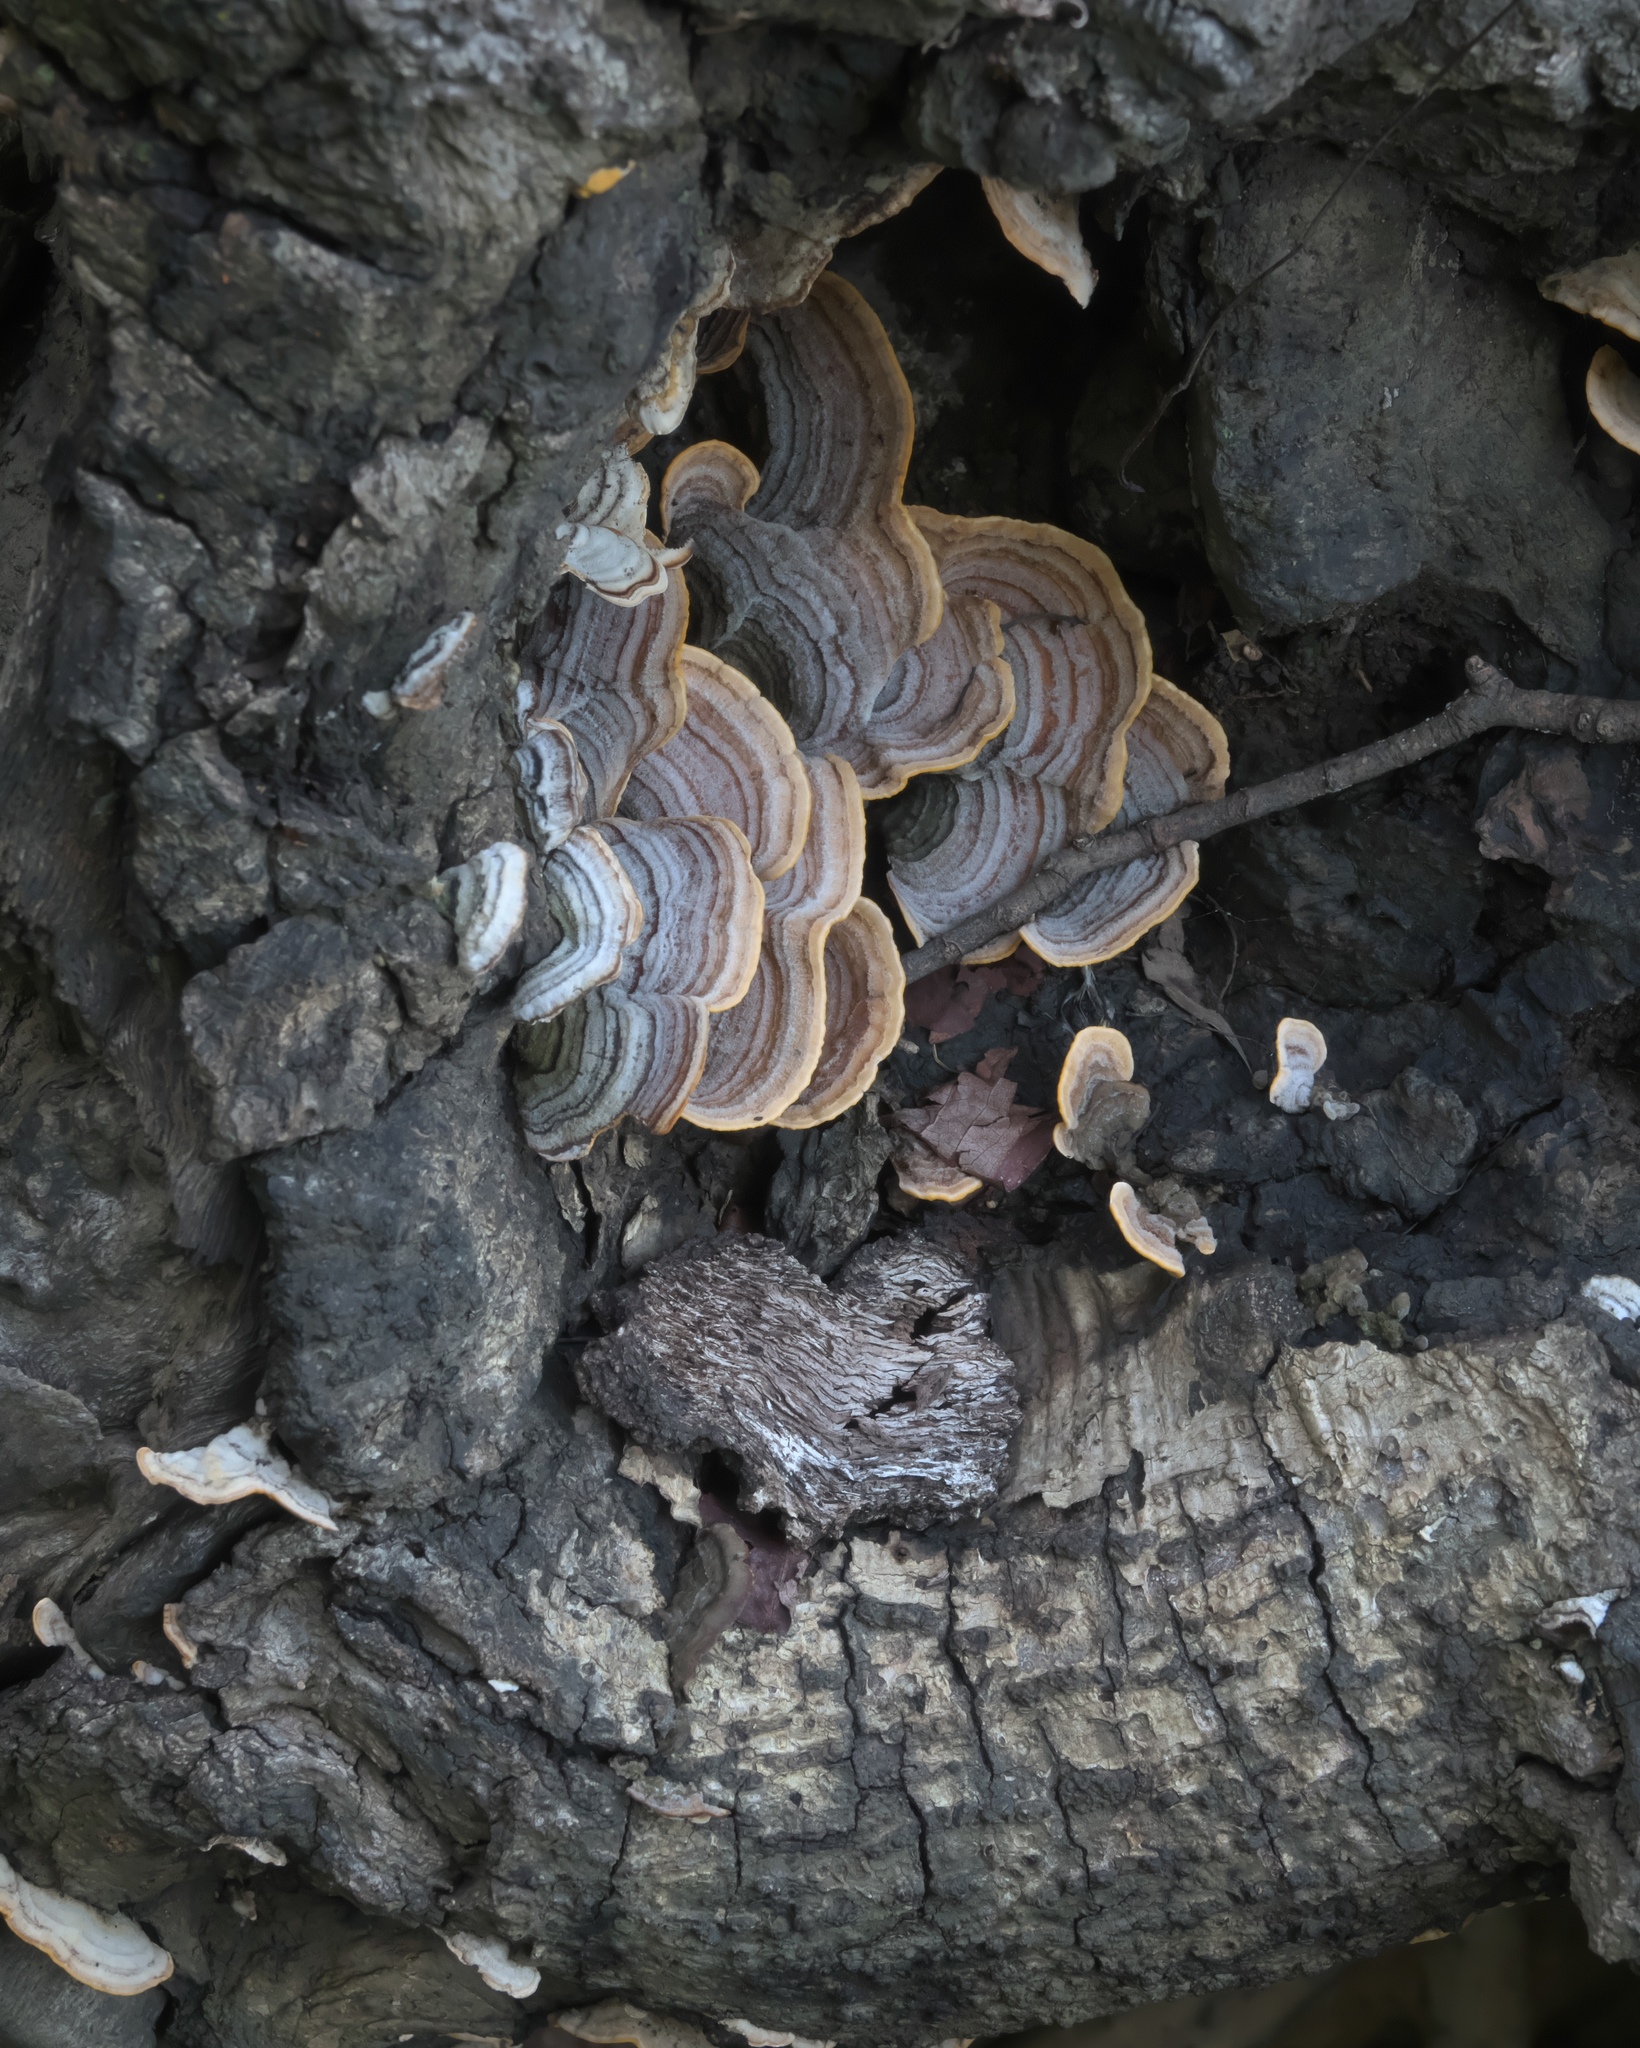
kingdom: Fungi
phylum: Basidiomycota
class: Agaricomycetes
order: Russulales
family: Stereaceae
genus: Stereum
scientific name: Stereum subtomentosum
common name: Yellowing curtain crust
